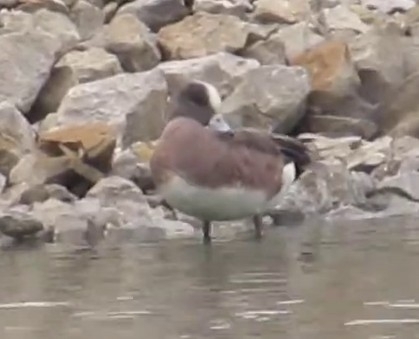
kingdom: Animalia
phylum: Chordata
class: Aves
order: Anseriformes
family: Anatidae
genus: Mareca
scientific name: Mareca americana
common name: American wigeon
